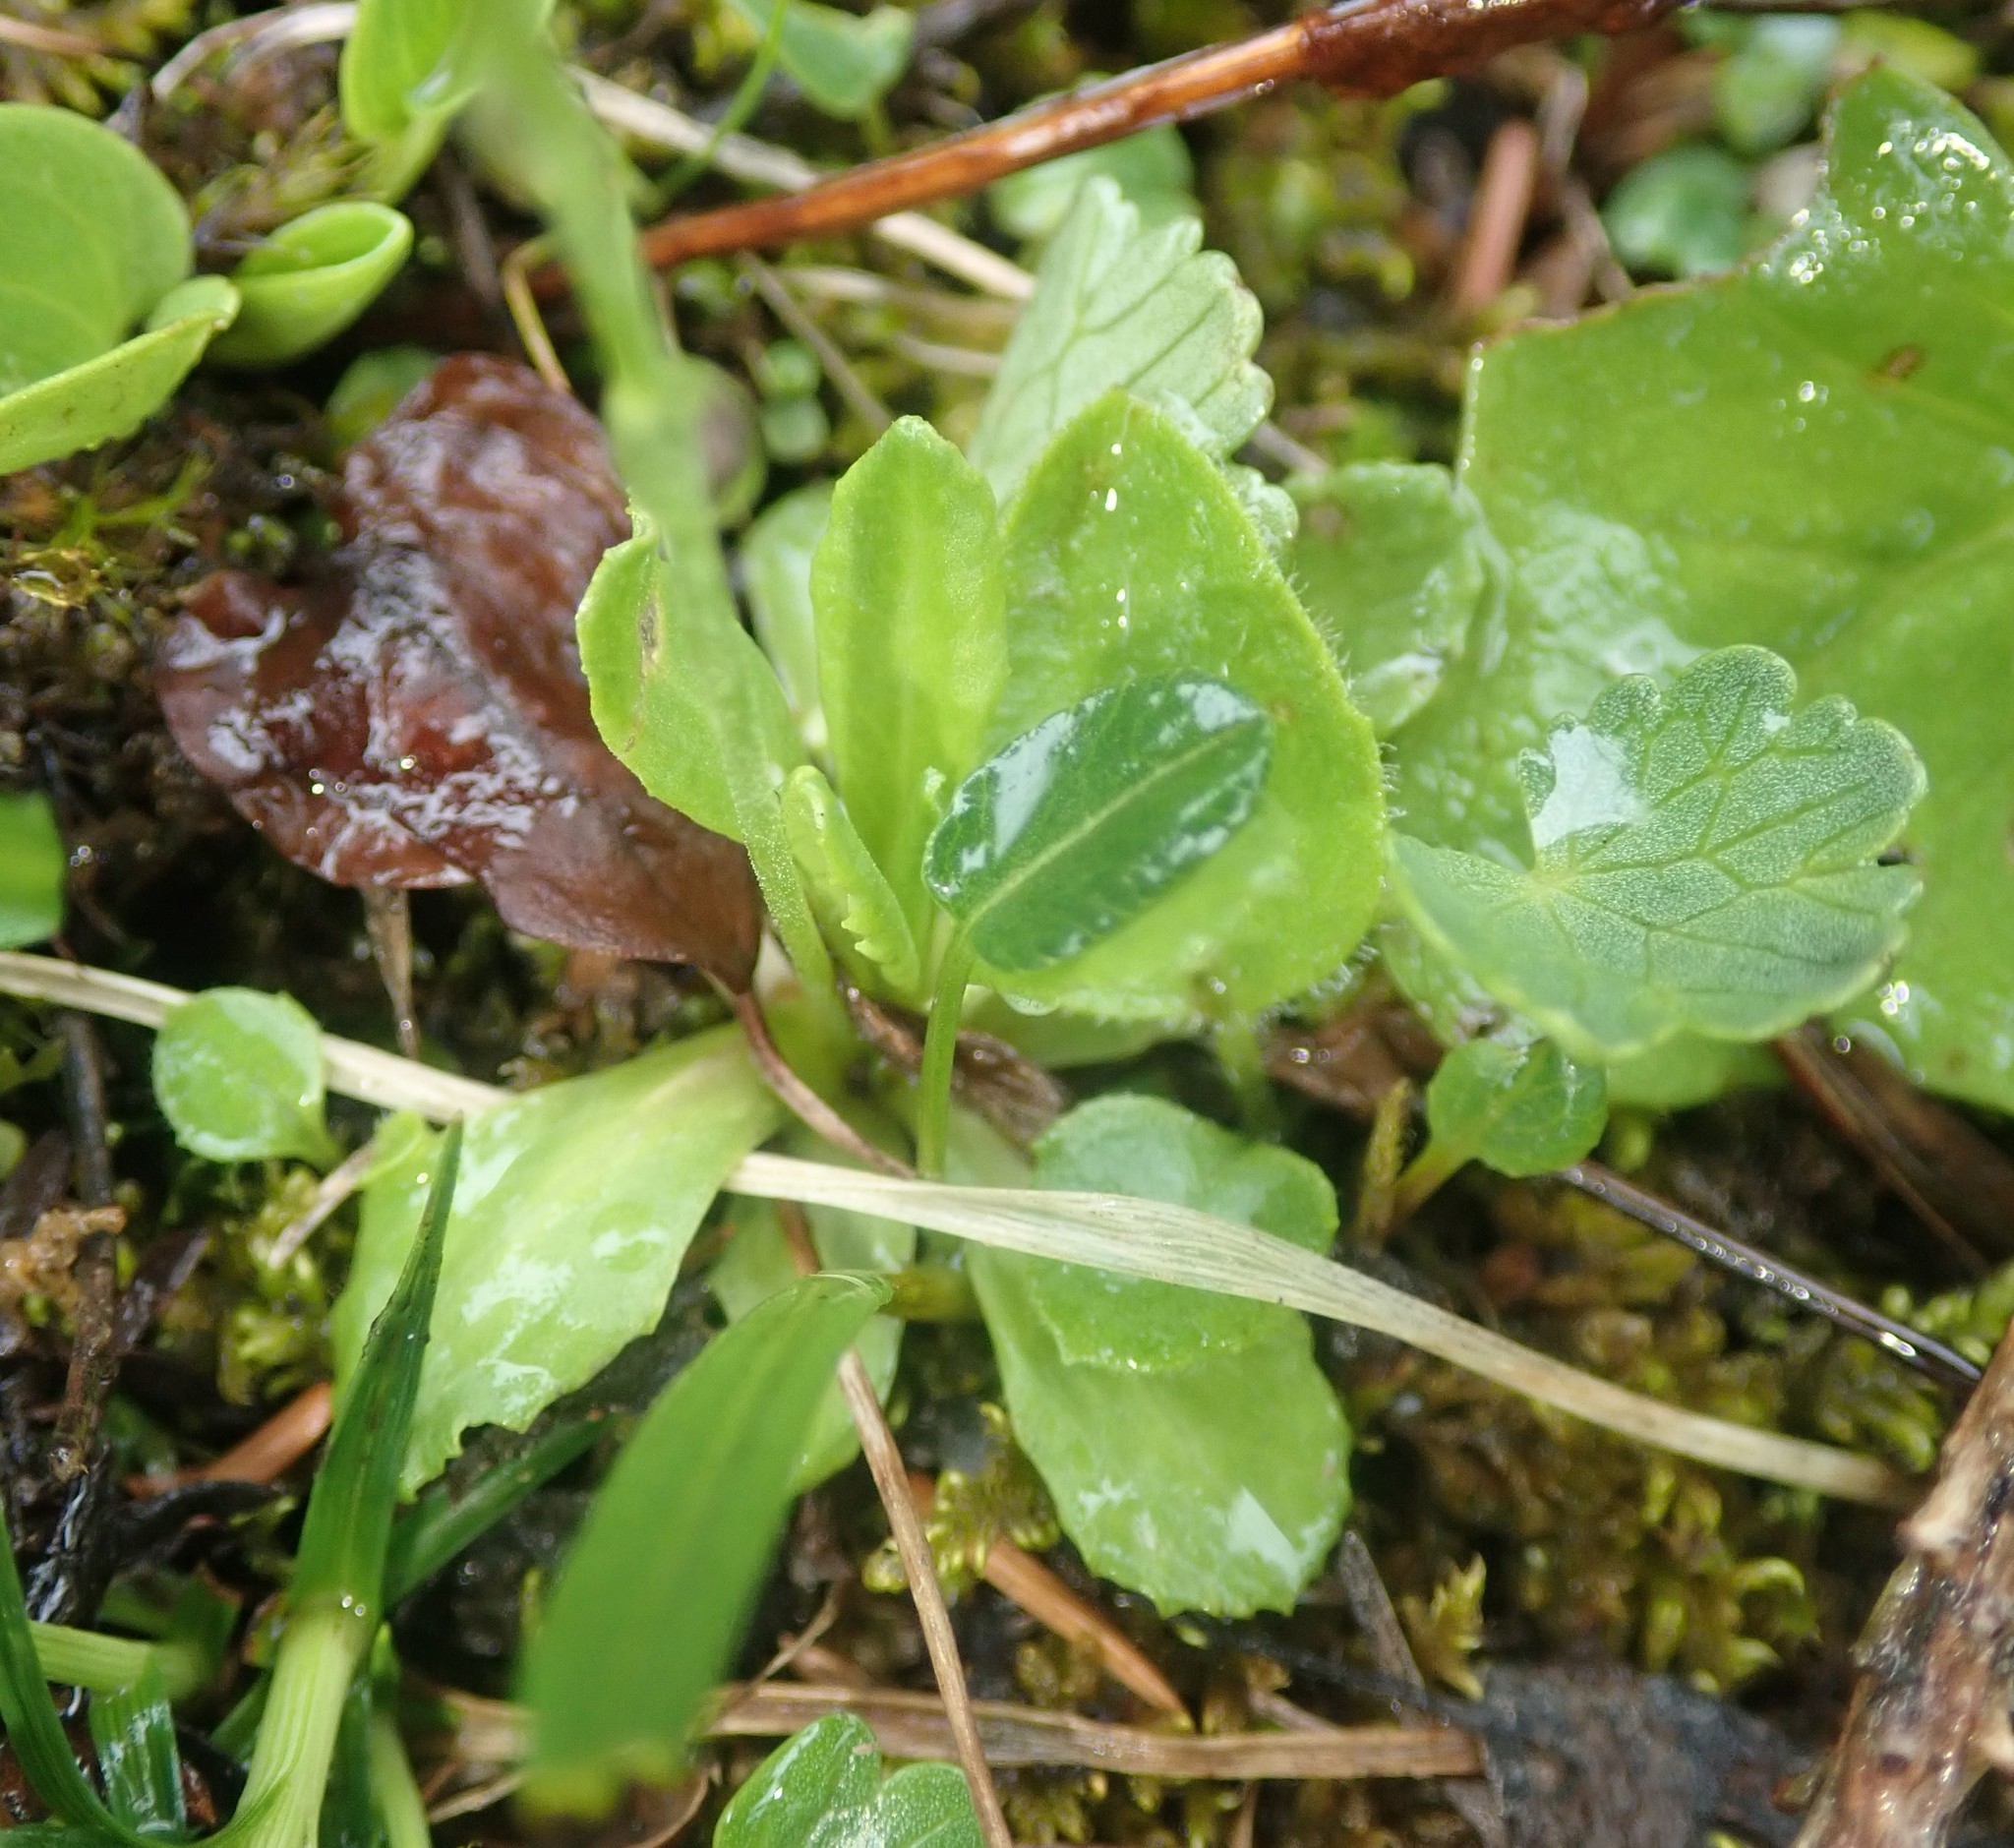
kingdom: Plantae
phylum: Tracheophyta
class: Magnoliopsida
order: Ericales
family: Primulaceae
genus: Primula
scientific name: Primula farinosa
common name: Bird's-eye primrose
